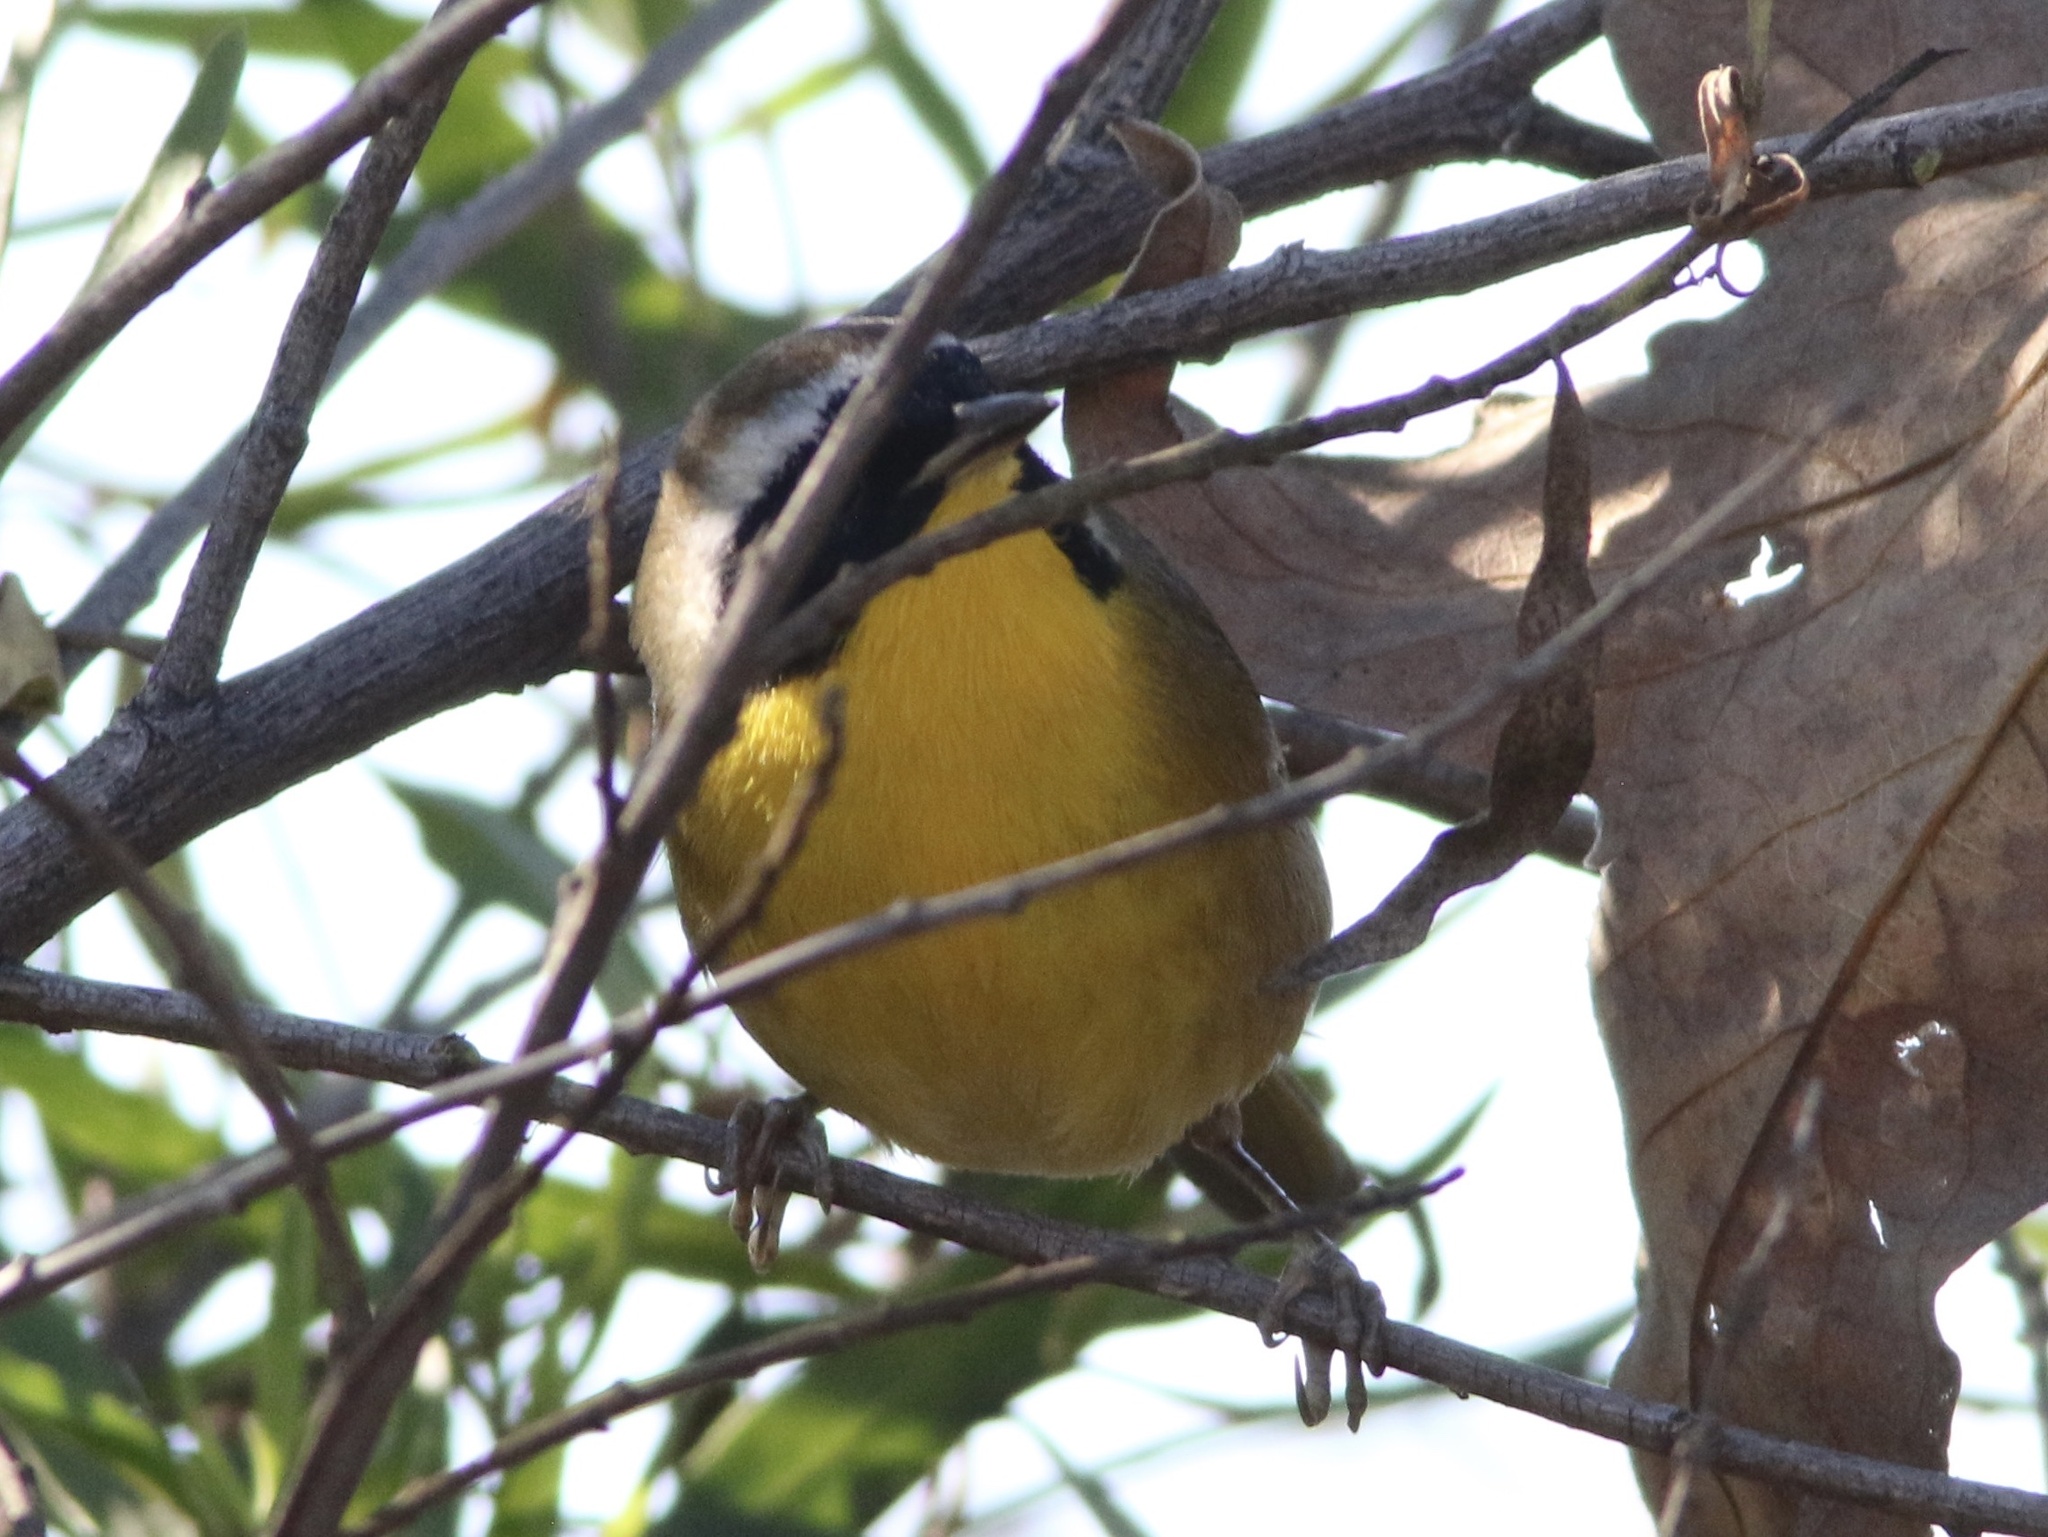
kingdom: Animalia
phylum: Chordata
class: Aves
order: Passeriformes
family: Parulidae
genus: Geothlypis
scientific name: Geothlypis trichas
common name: Common yellowthroat
